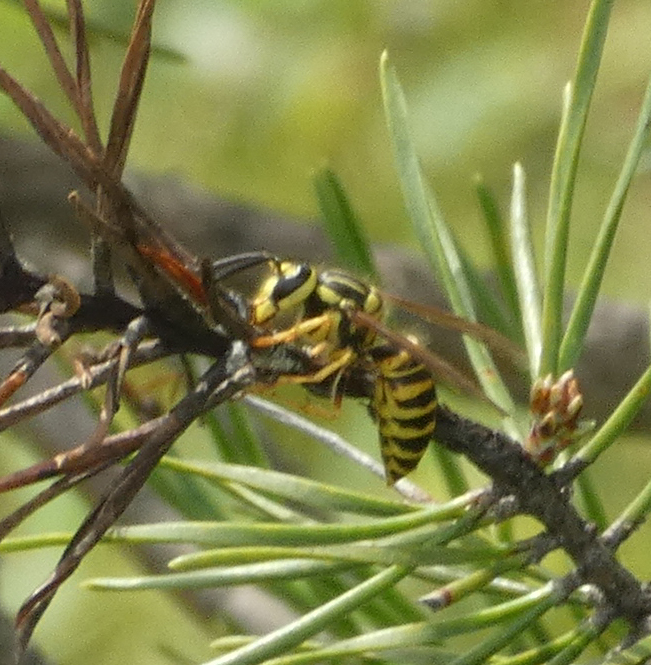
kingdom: Animalia
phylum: Arthropoda
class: Insecta
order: Hymenoptera
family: Vespidae
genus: Vespula
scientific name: Vespula squamosa
